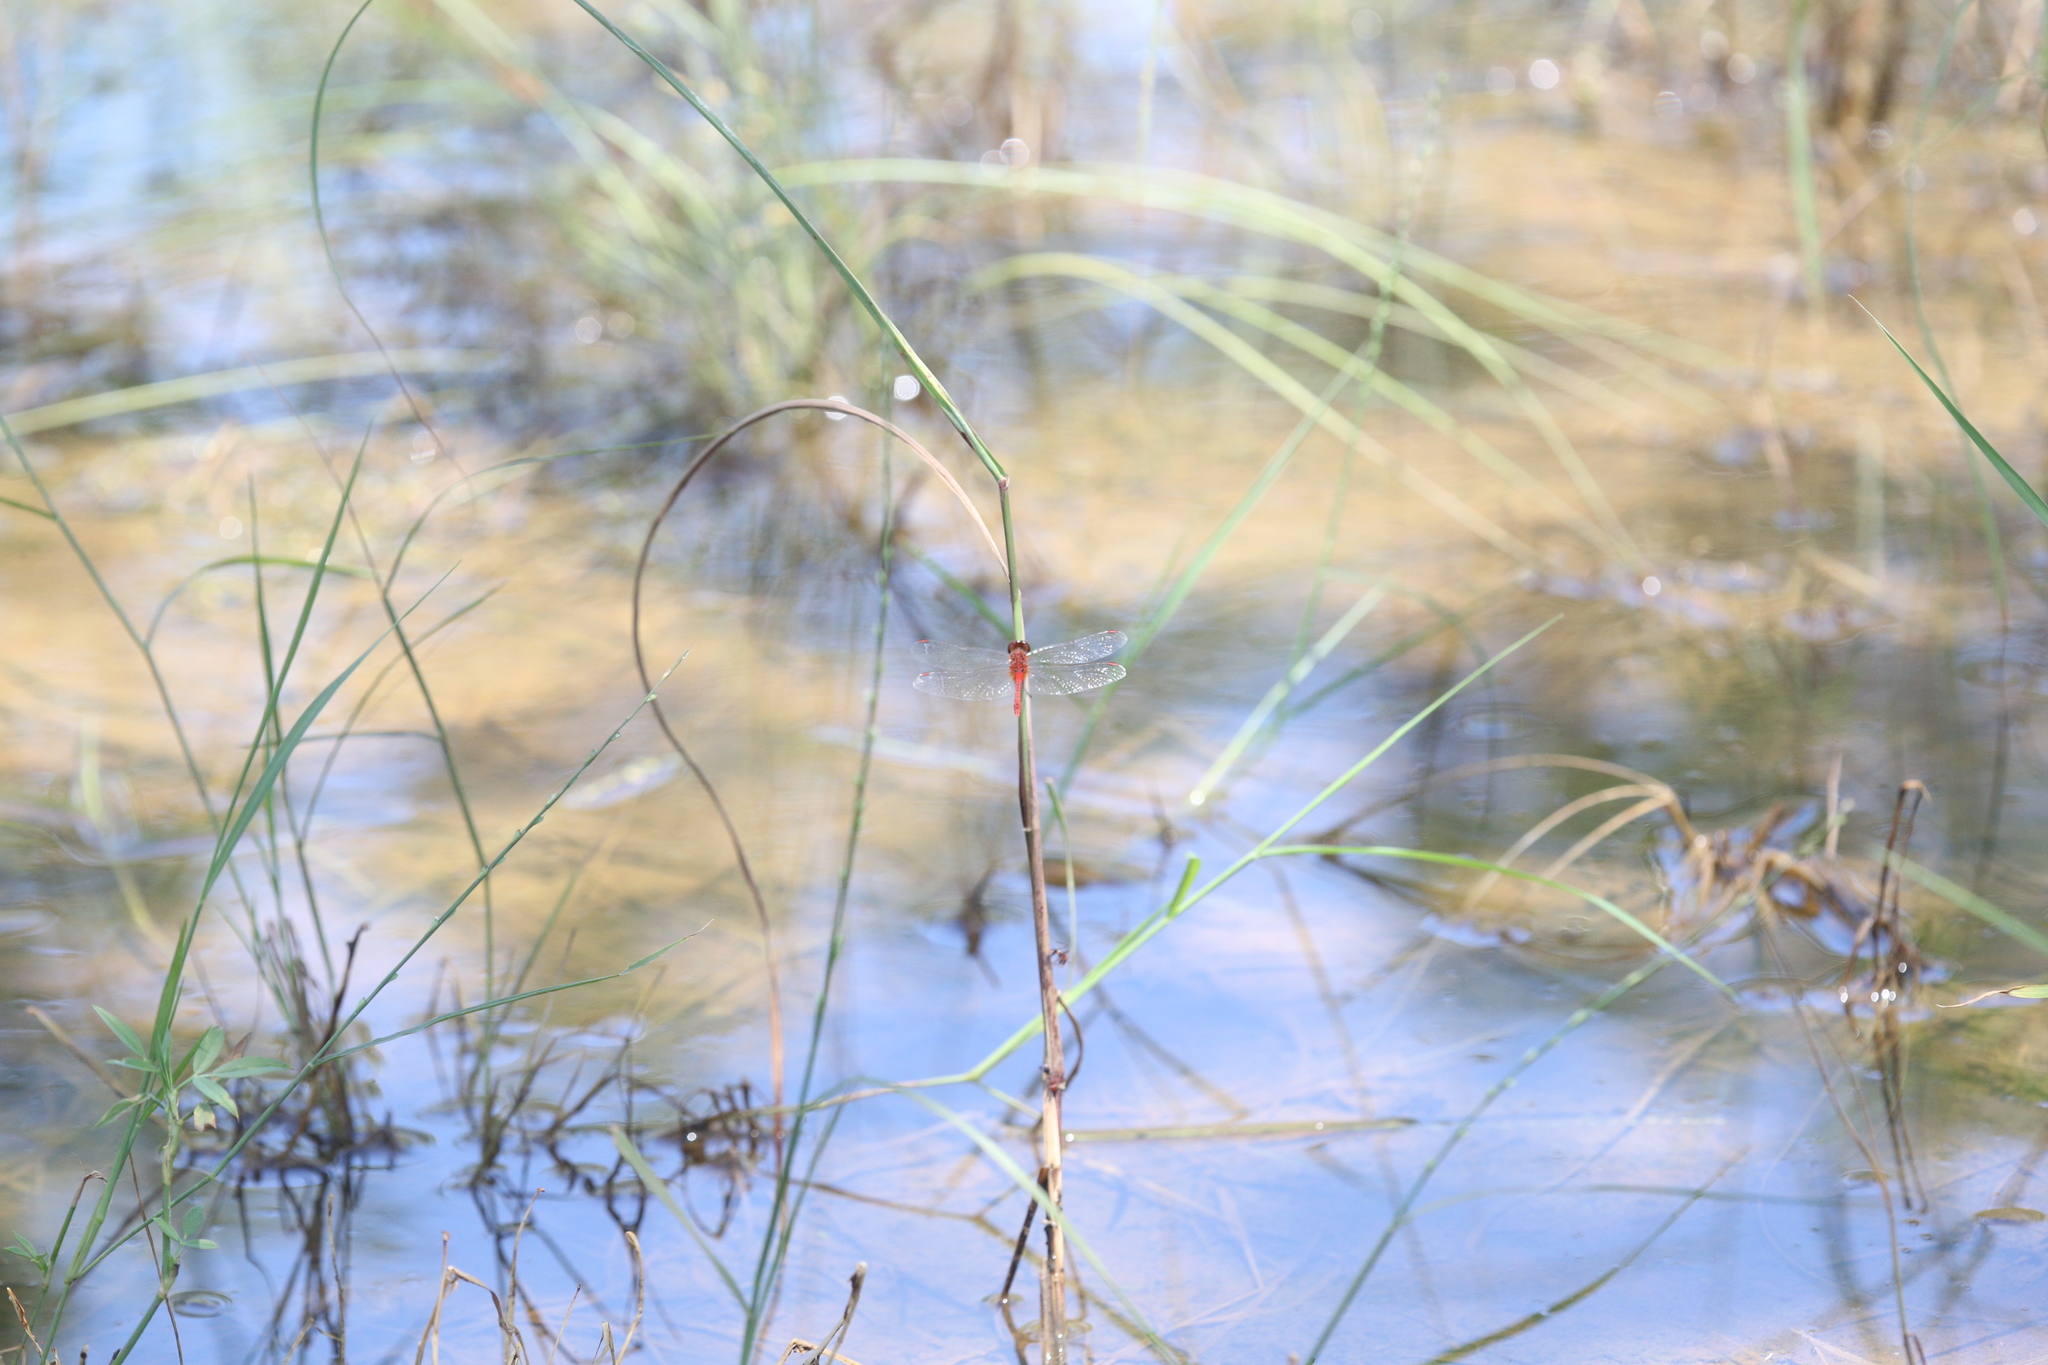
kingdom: Animalia
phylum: Arthropoda
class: Insecta
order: Odonata
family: Libellulidae
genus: Diplacodes
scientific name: Diplacodes bipunctata
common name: Red percher dragonfly
